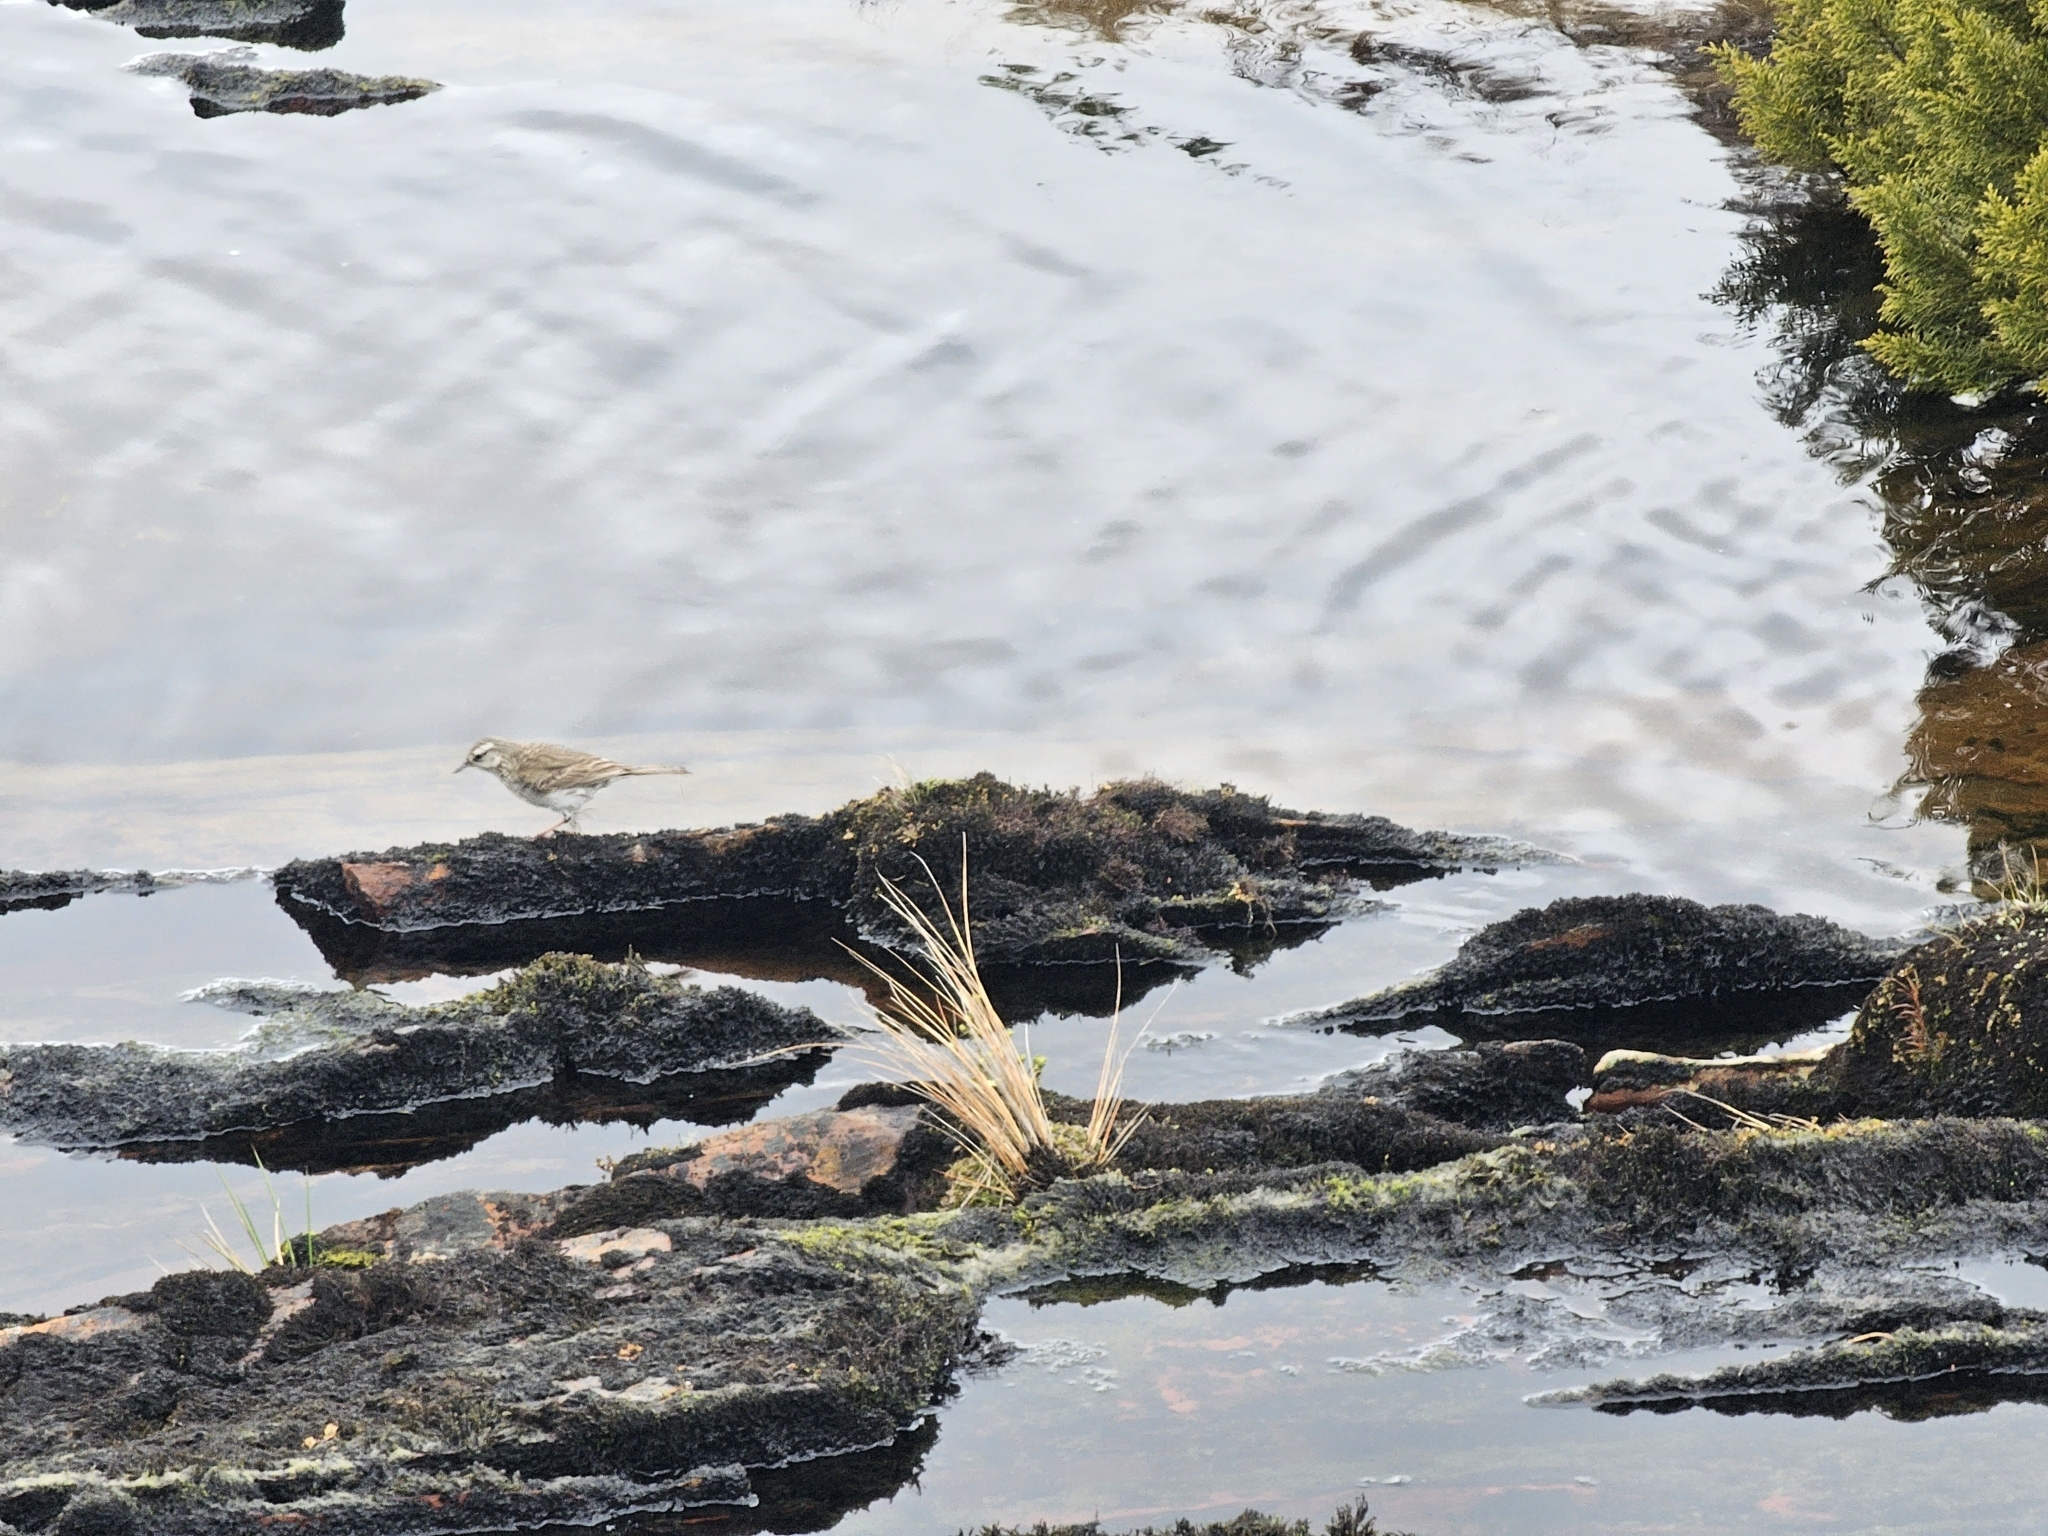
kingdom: Animalia
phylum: Chordata
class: Aves
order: Passeriformes
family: Motacillidae
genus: Anthus
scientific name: Anthus novaeseelandiae
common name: New zealand pipit
